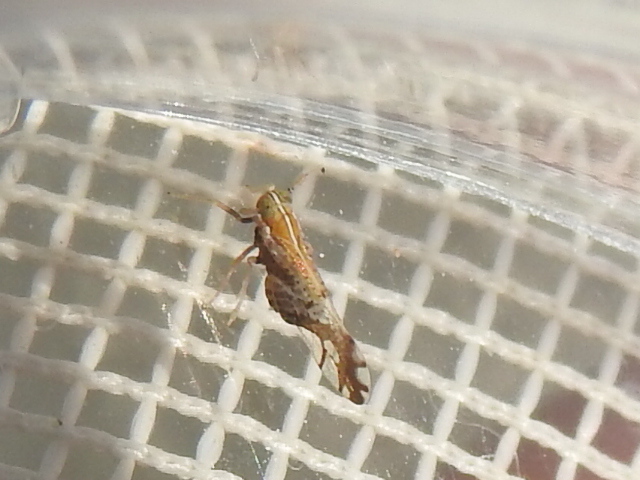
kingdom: Animalia
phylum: Arthropoda
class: Insecta
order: Hemiptera
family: Delphacidae
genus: Liburniella
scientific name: Liburniella ornata
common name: Ornate planthopper
